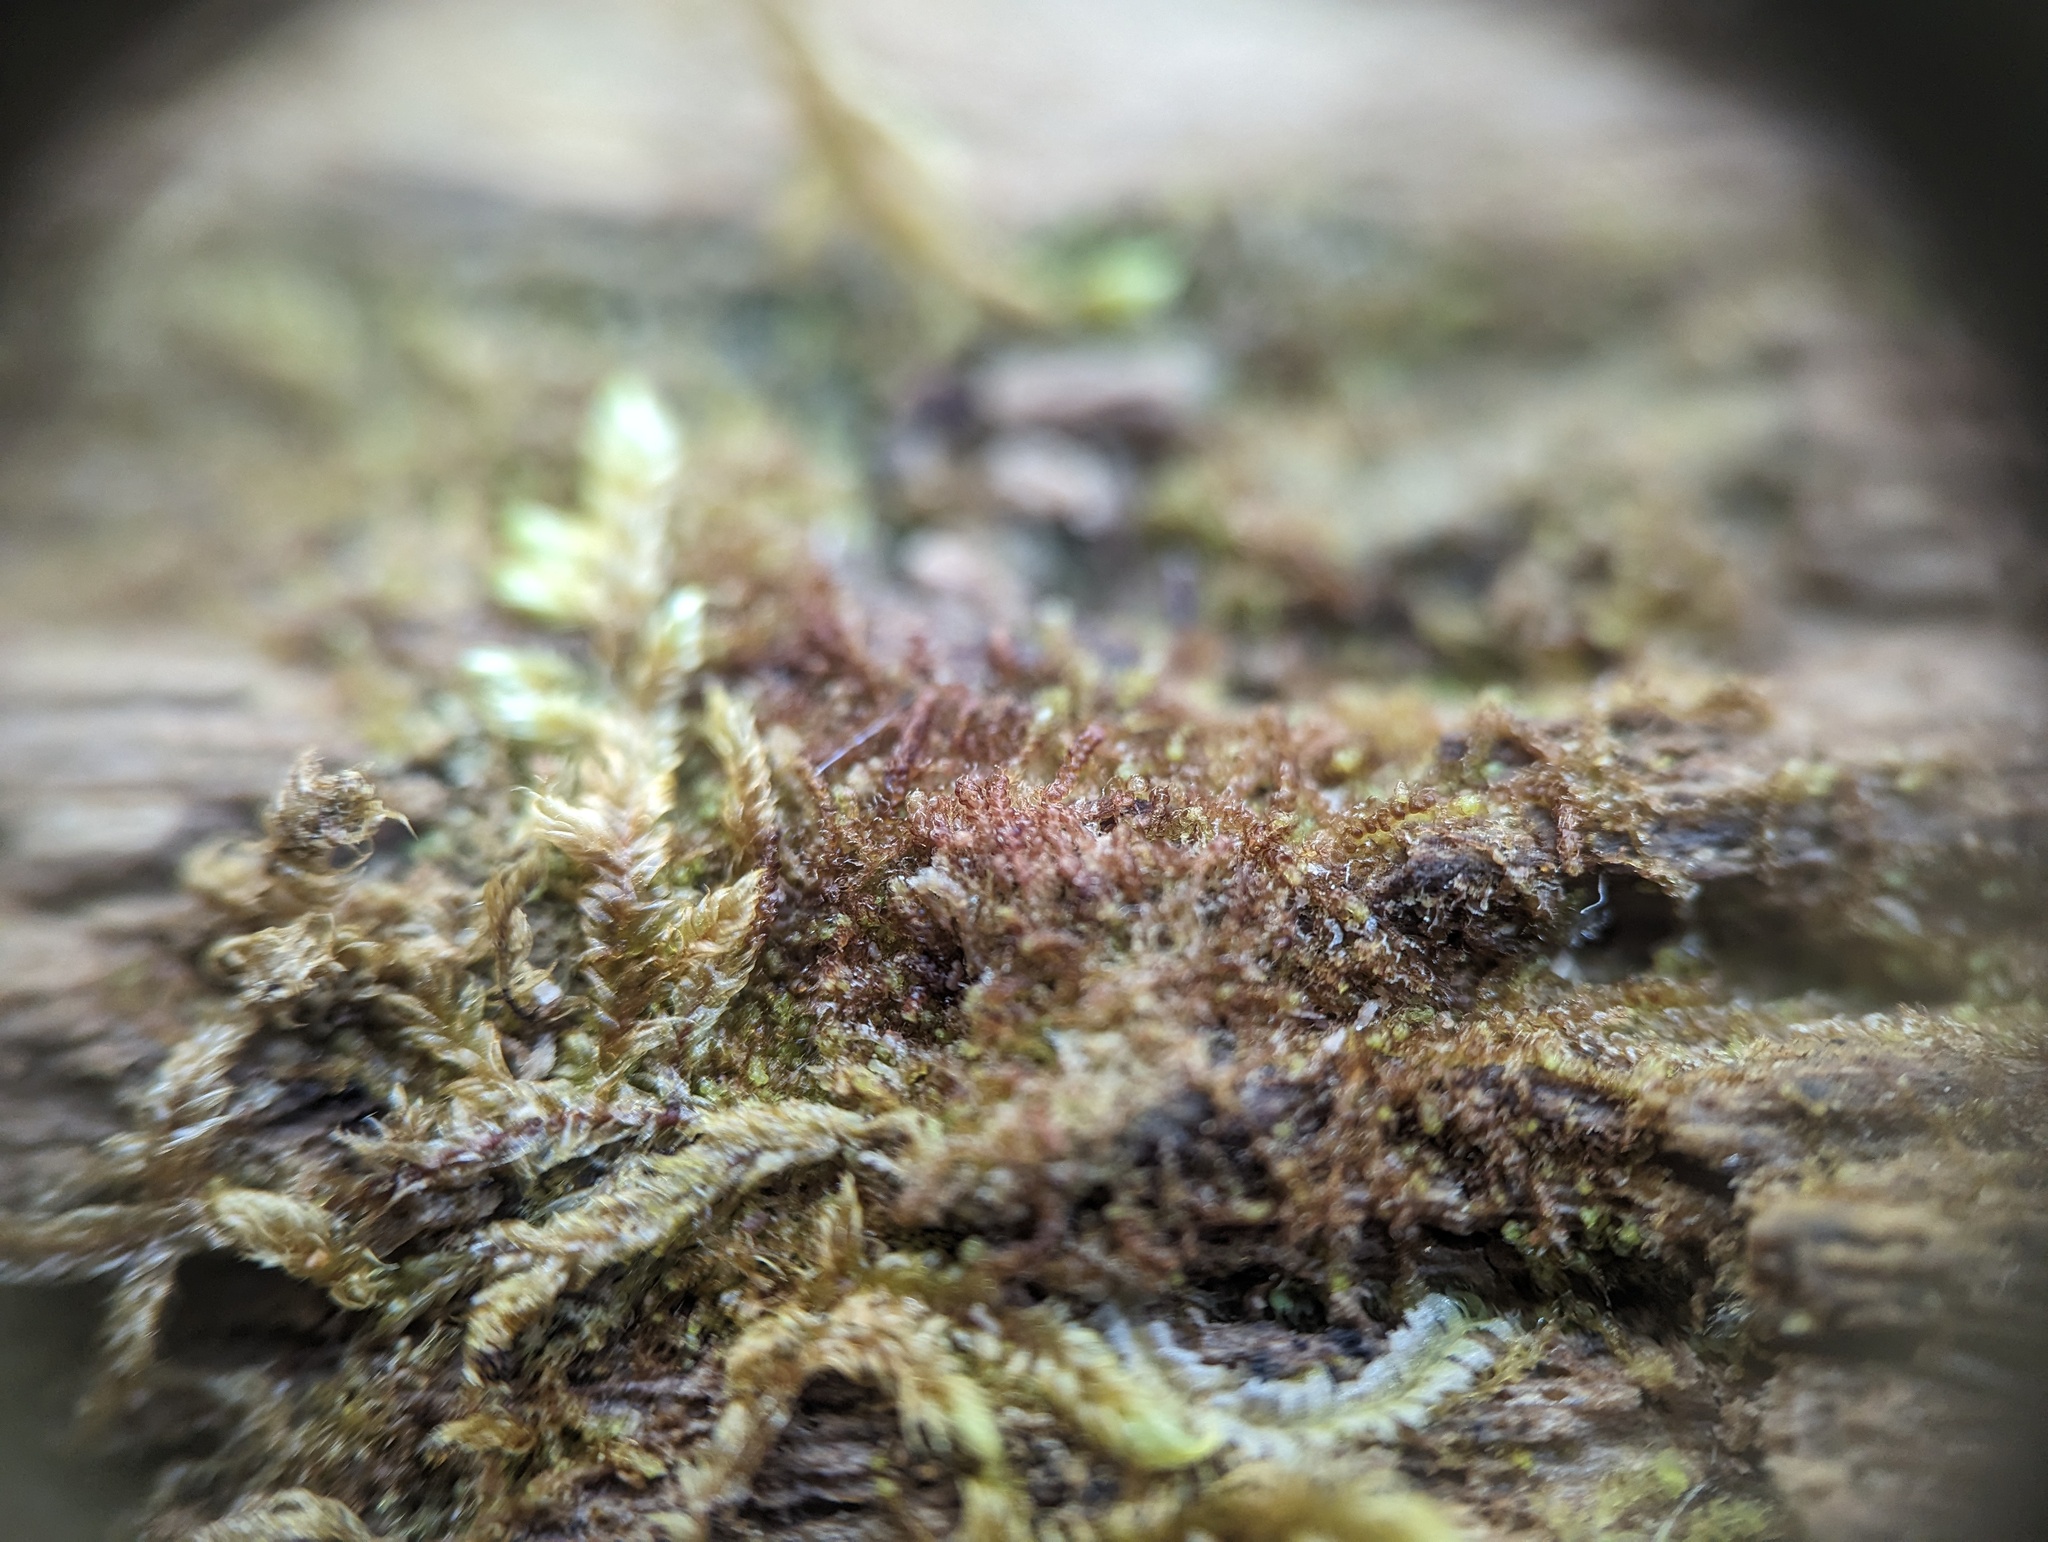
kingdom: Plantae
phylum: Marchantiophyta
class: Jungermanniopsida
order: Jungermanniales
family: Cephaloziaceae
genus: Nowellia
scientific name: Nowellia curvifolia
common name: Wood rustwort
